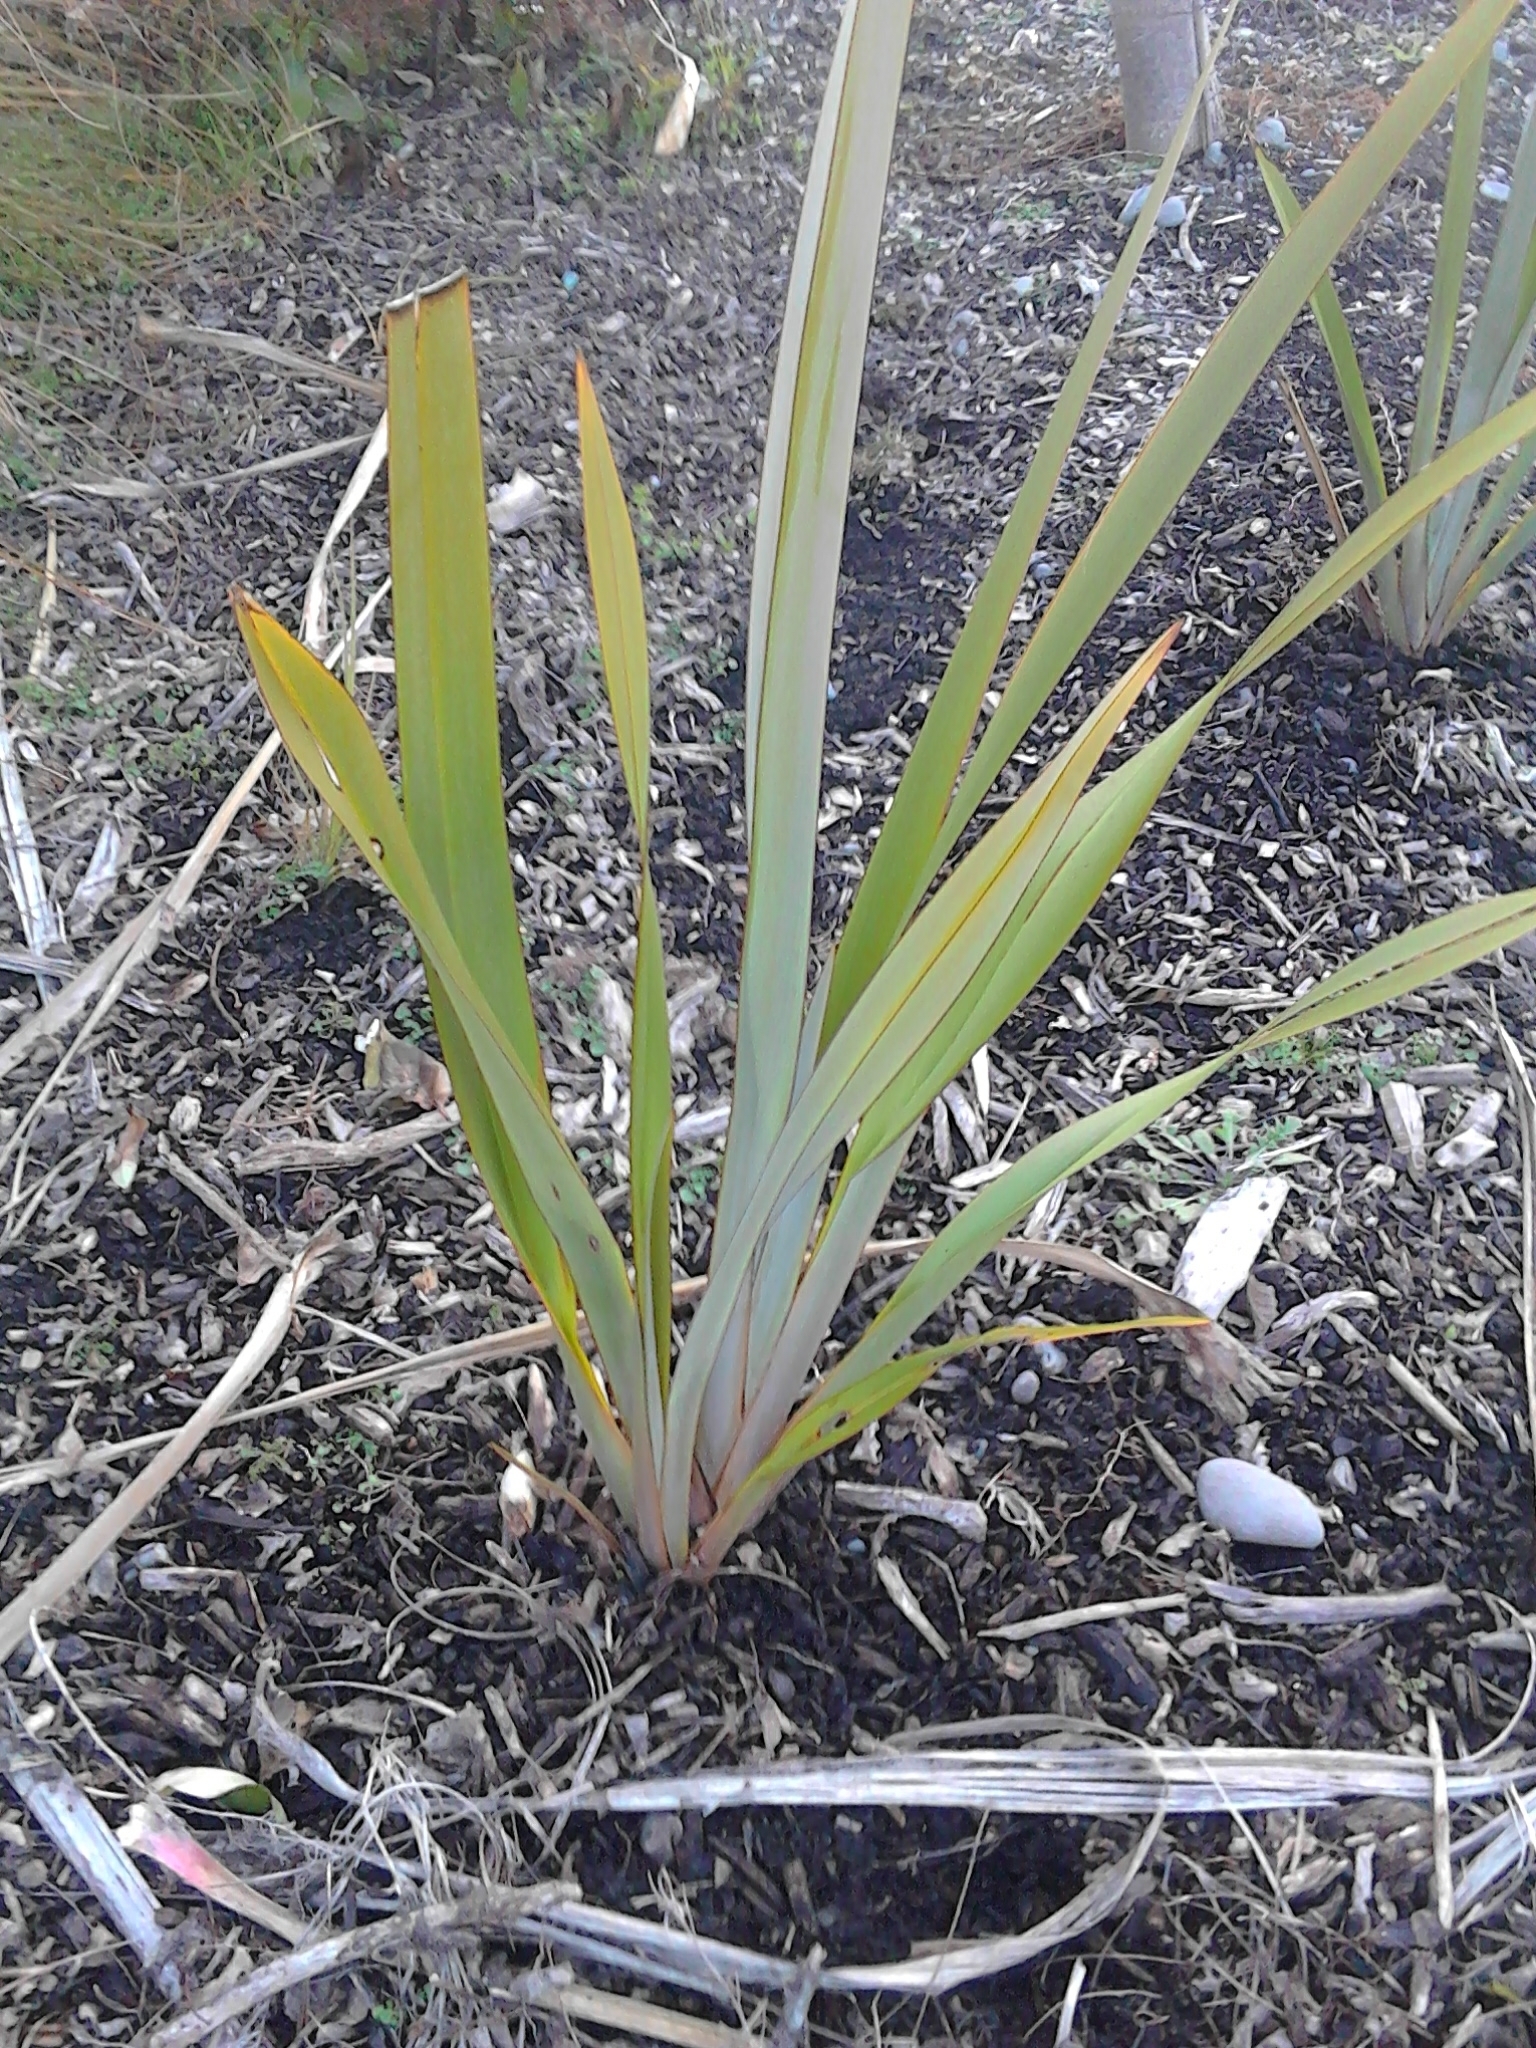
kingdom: Plantae
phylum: Tracheophyta
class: Liliopsida
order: Asparagales
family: Asphodelaceae
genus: Phormium
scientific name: Phormium tenax
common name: New zealand flax
